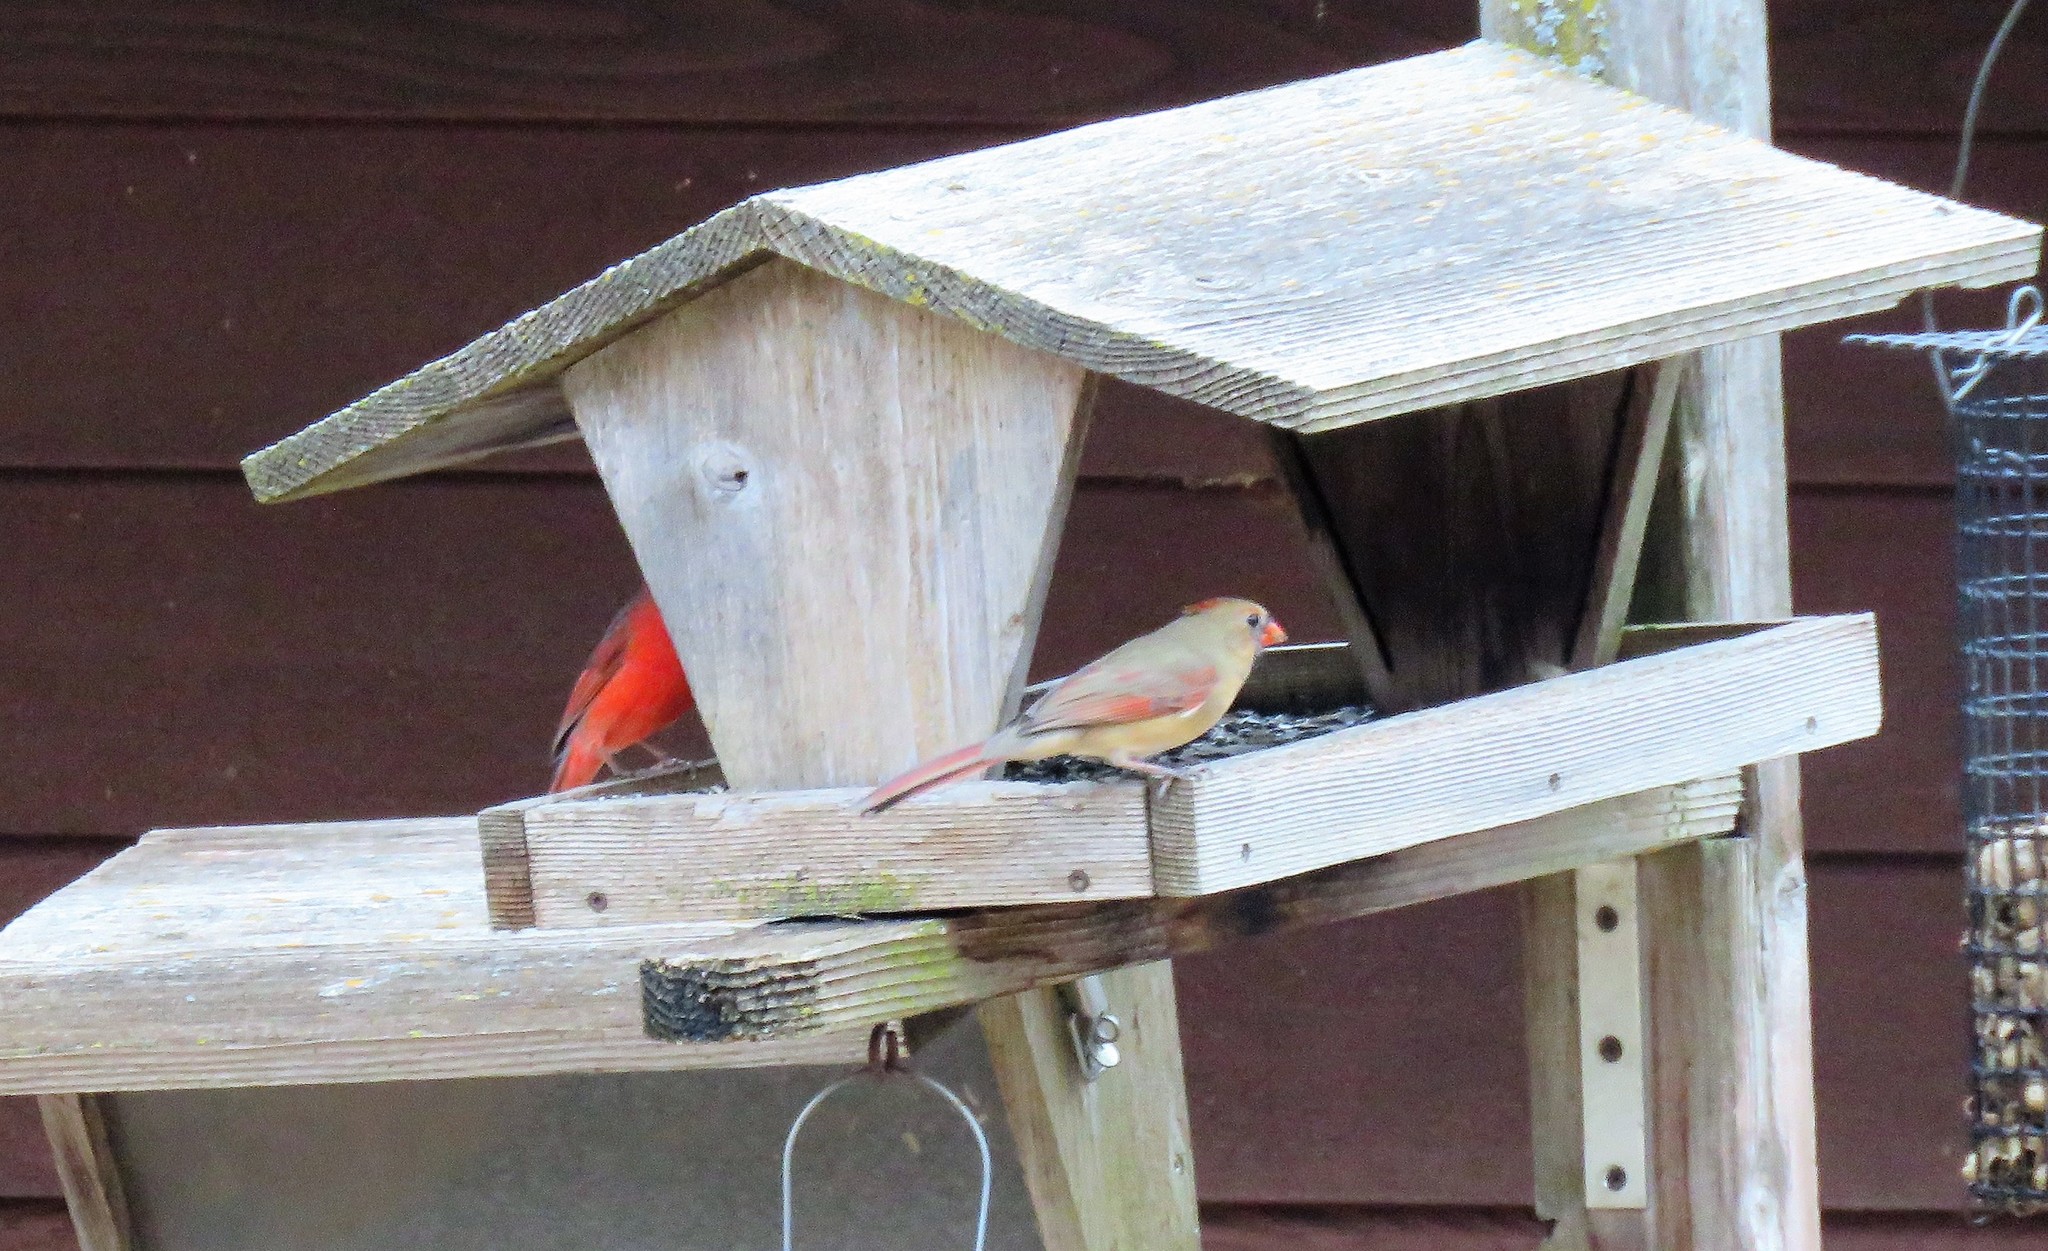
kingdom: Animalia
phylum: Chordata
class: Aves
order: Passeriformes
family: Cardinalidae
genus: Cardinalis
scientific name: Cardinalis cardinalis
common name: Northern cardinal
